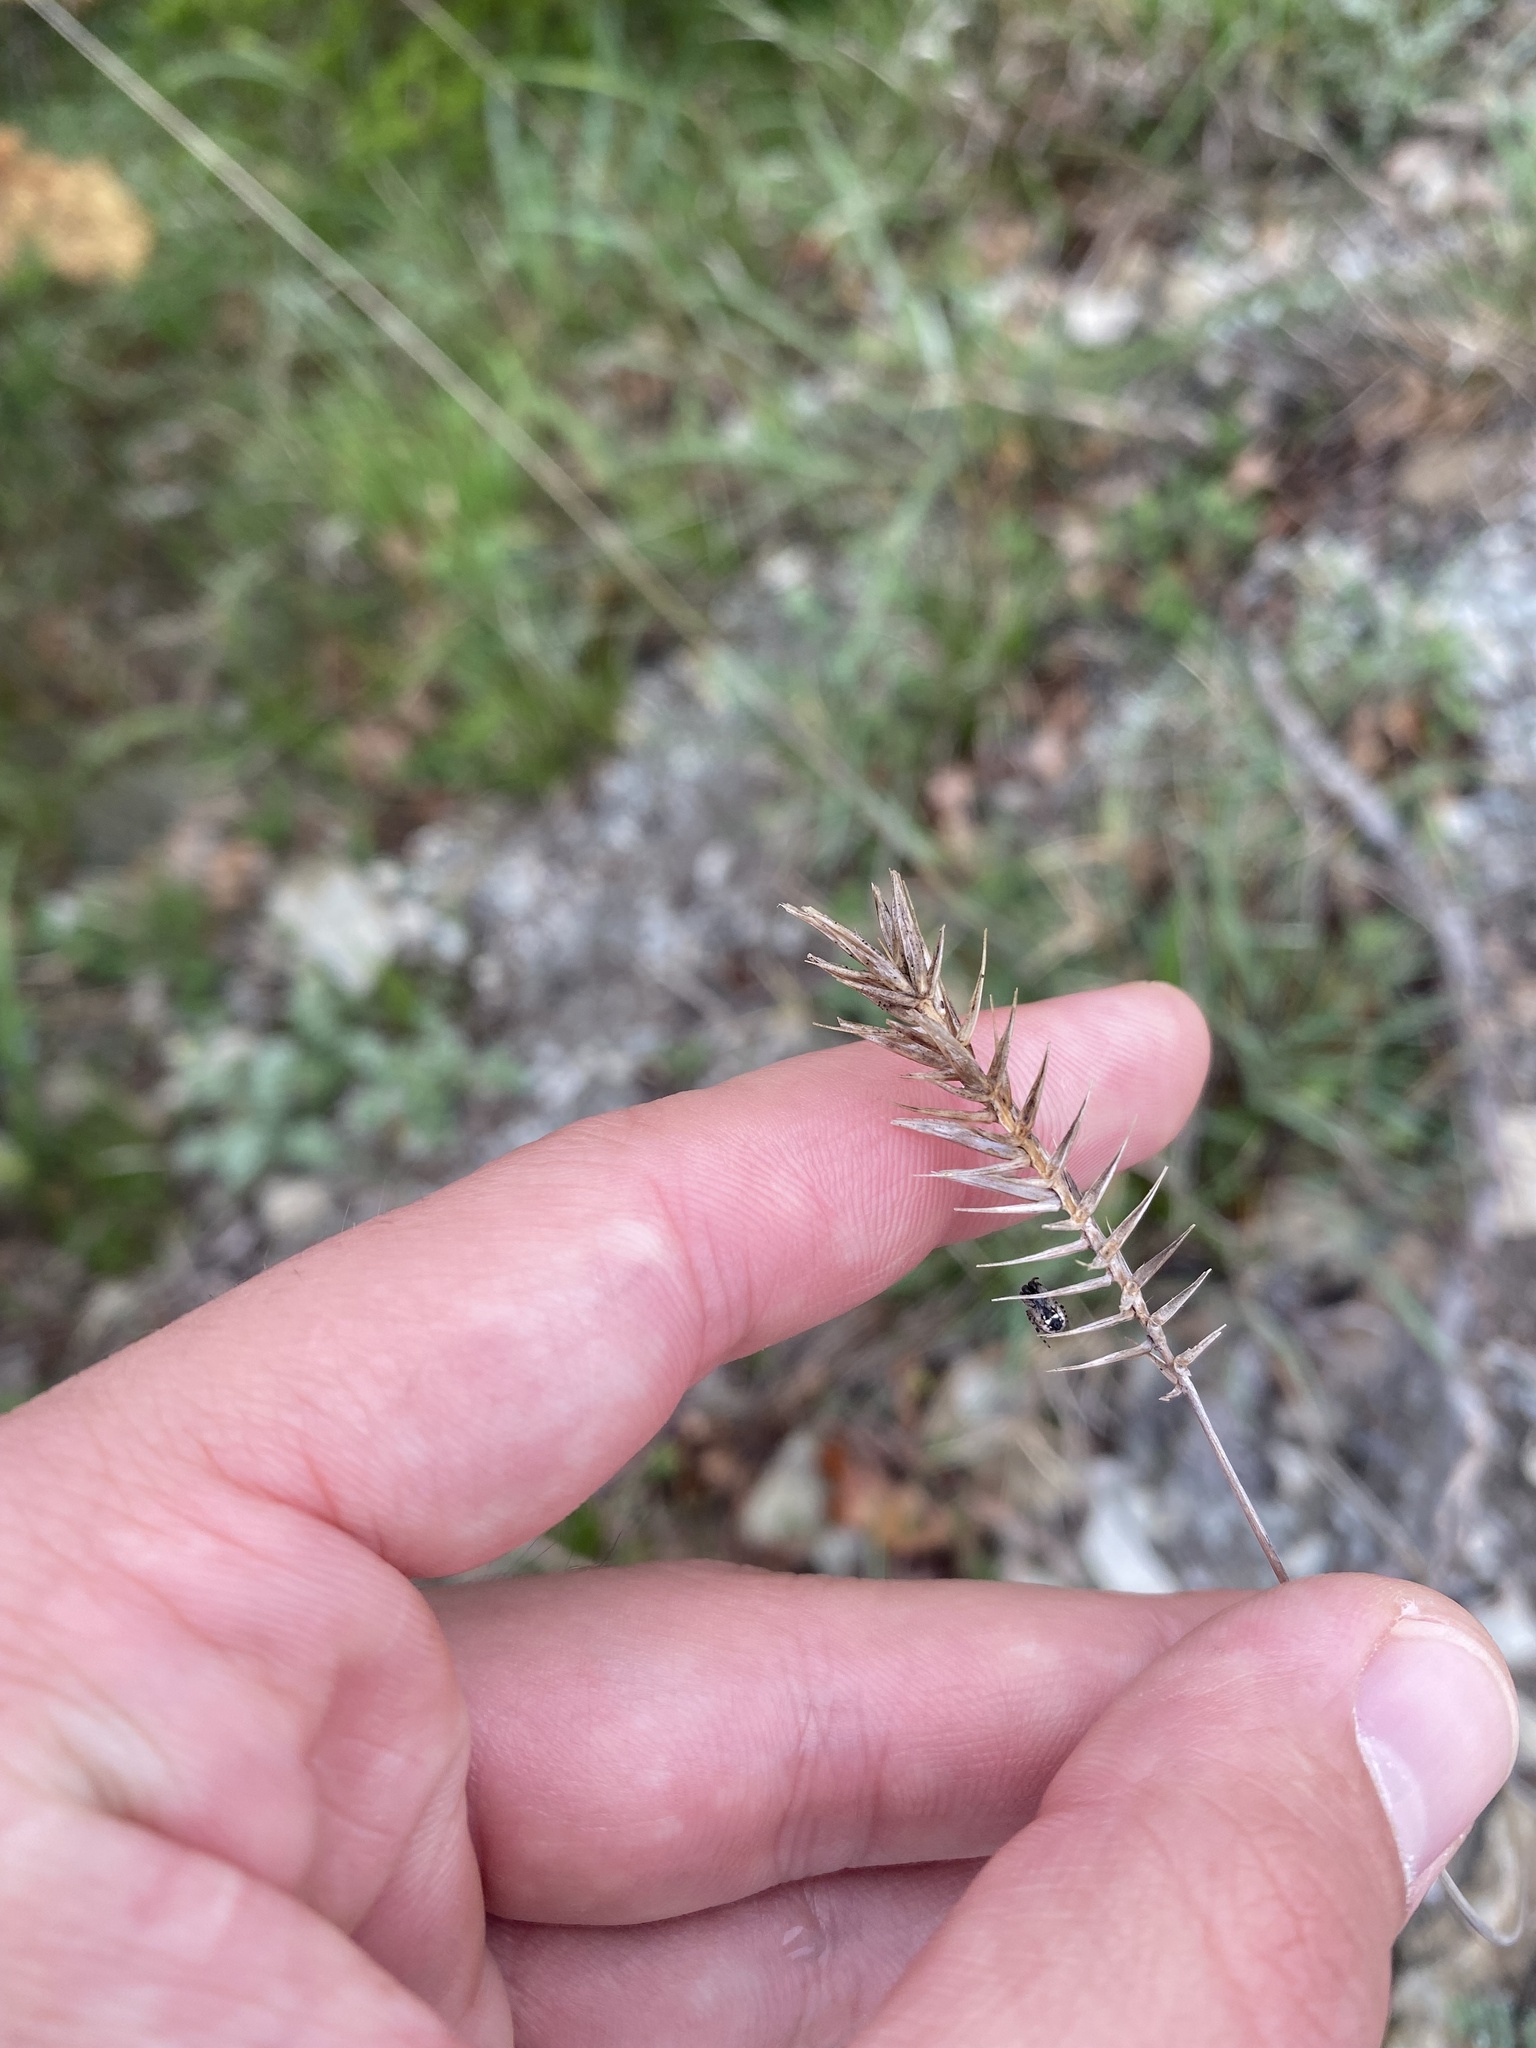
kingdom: Plantae
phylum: Tracheophyta
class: Liliopsida
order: Poales
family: Poaceae
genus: Agropyron
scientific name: Agropyron cristatum
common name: Crested wheatgrass
